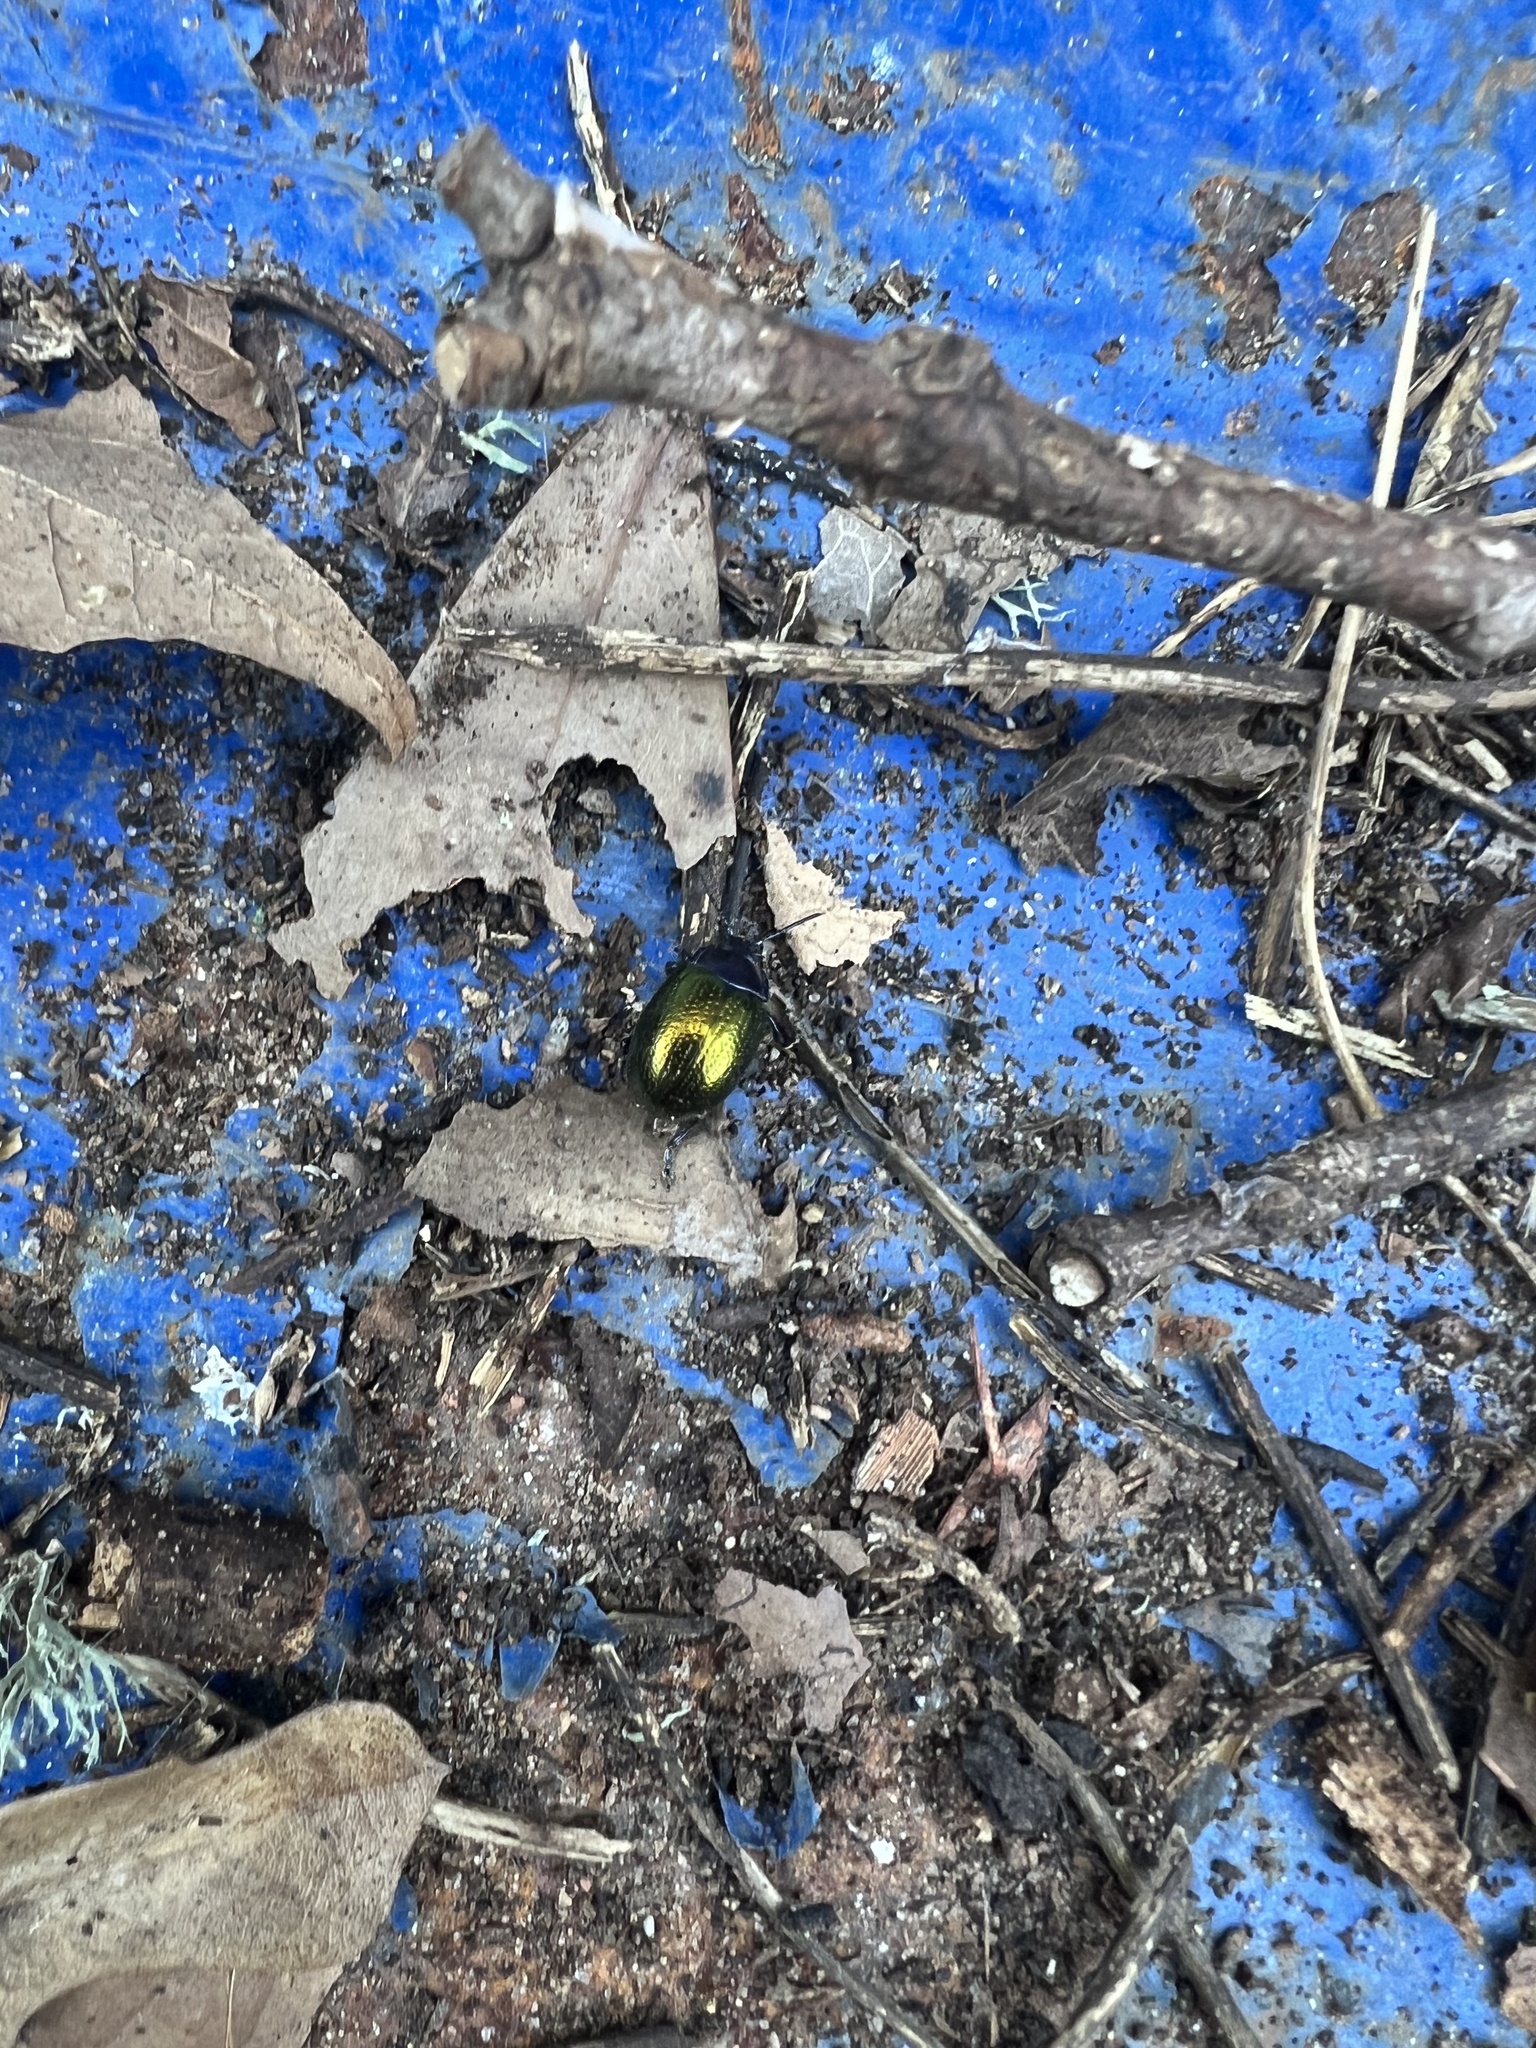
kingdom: Animalia
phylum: Arthropoda
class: Insecta
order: Coleoptera
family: Chrysomelidae
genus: Chrysolina
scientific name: Chrysolina auripennis
